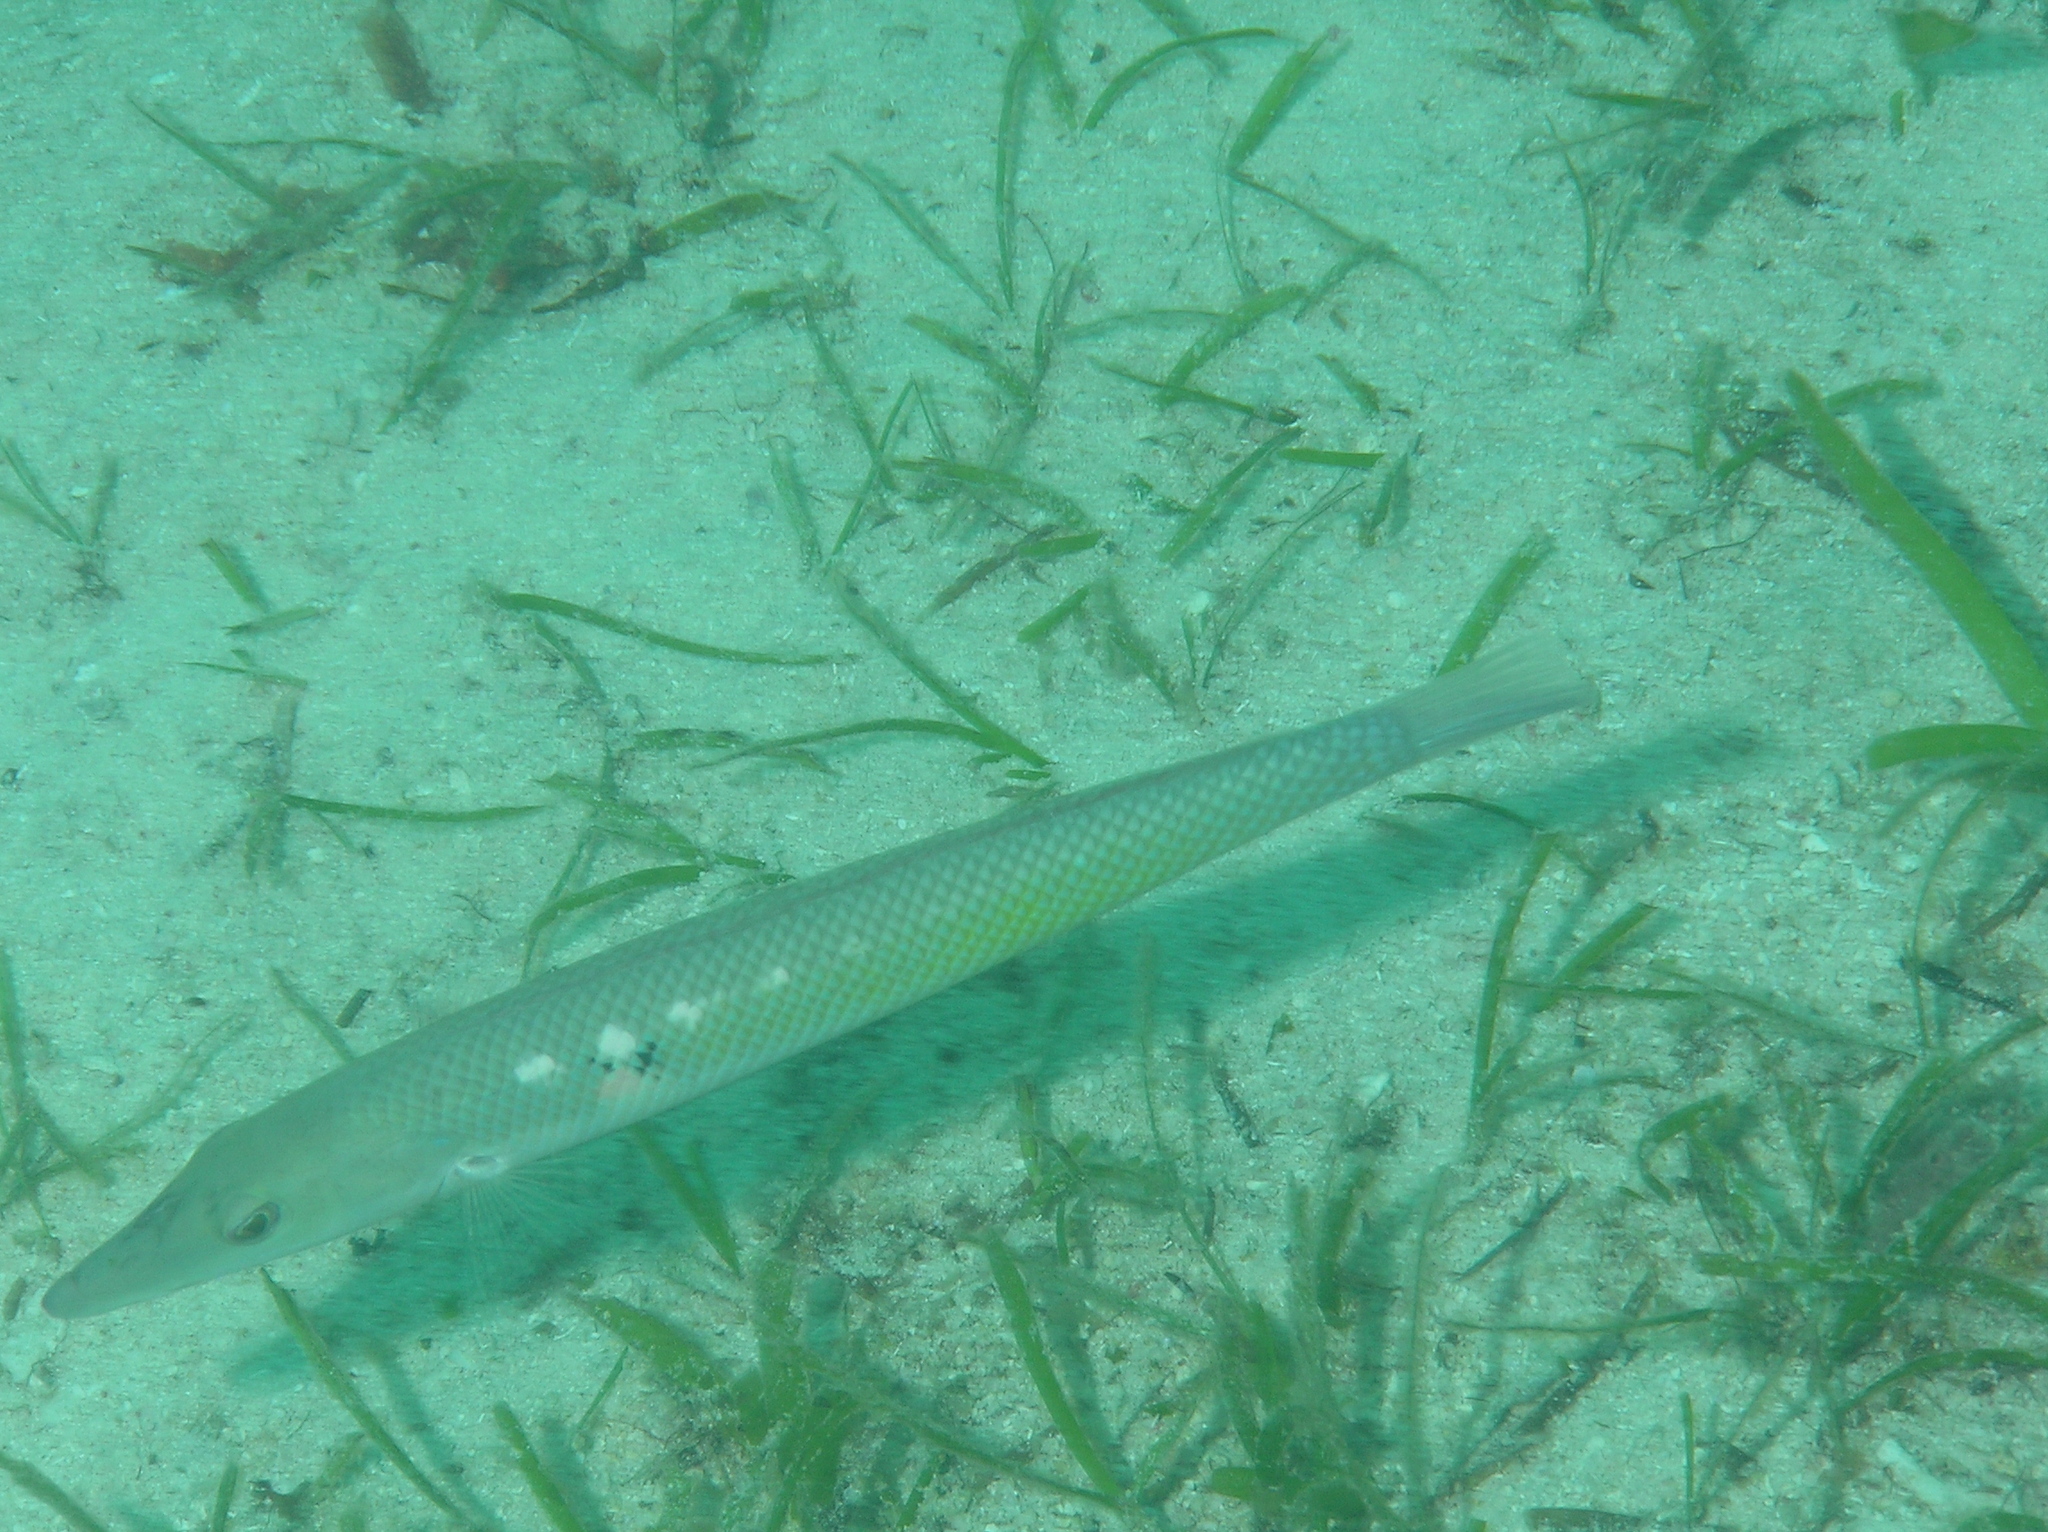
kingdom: Animalia
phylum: Chordata
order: Perciformes
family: Labridae
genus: Cheilio
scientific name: Cheilio inermis
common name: Cigar wrasse
